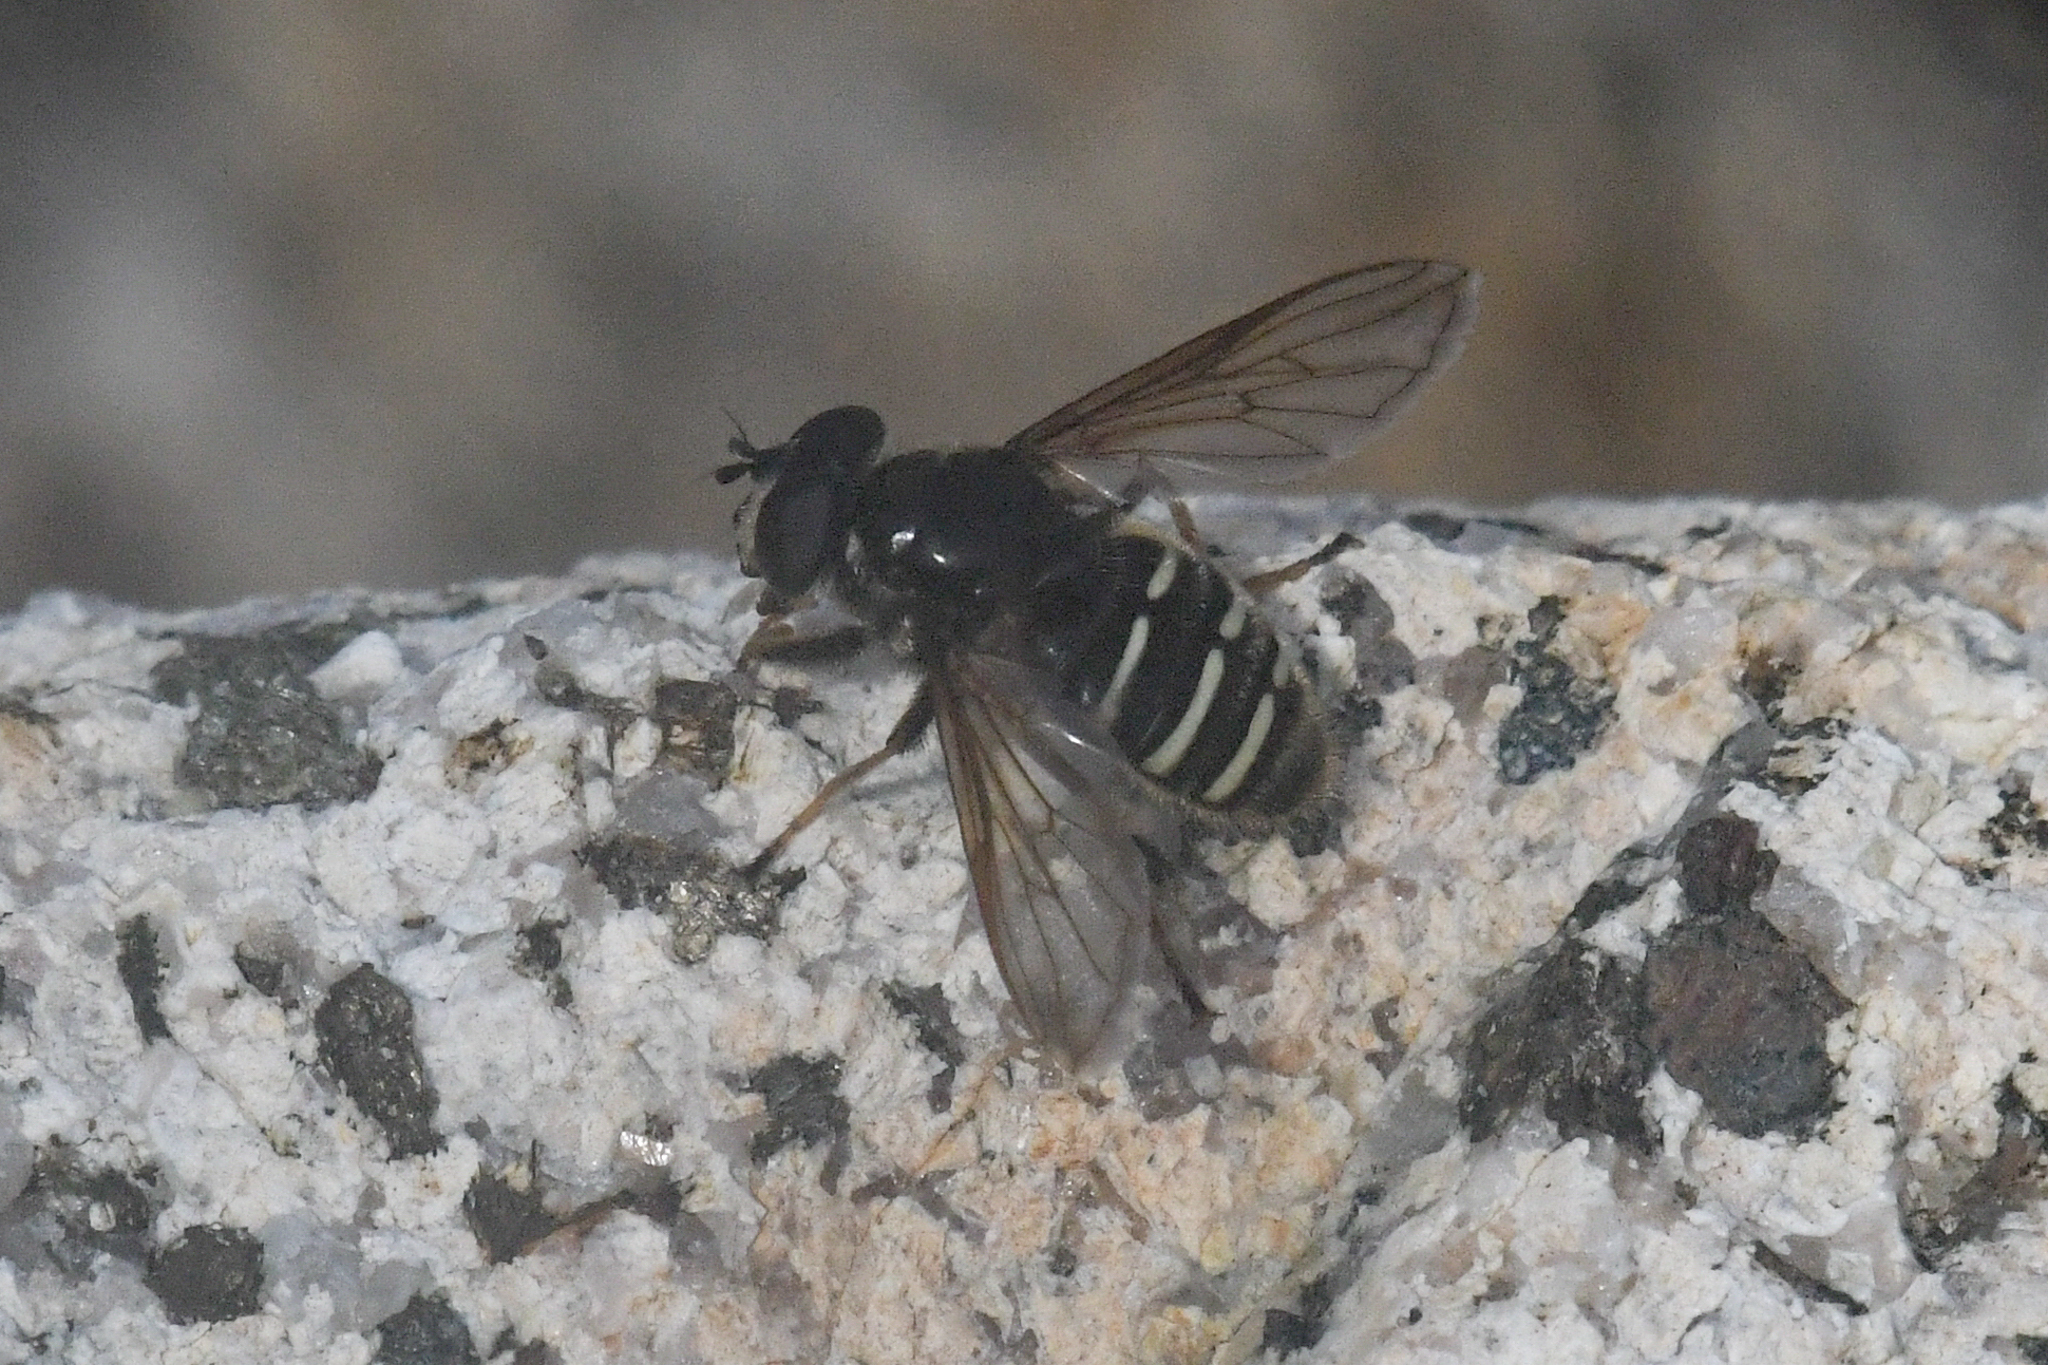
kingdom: Animalia
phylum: Arthropoda
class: Insecta
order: Diptera
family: Syrphidae
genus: Sericomyia
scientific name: Sericomyia
